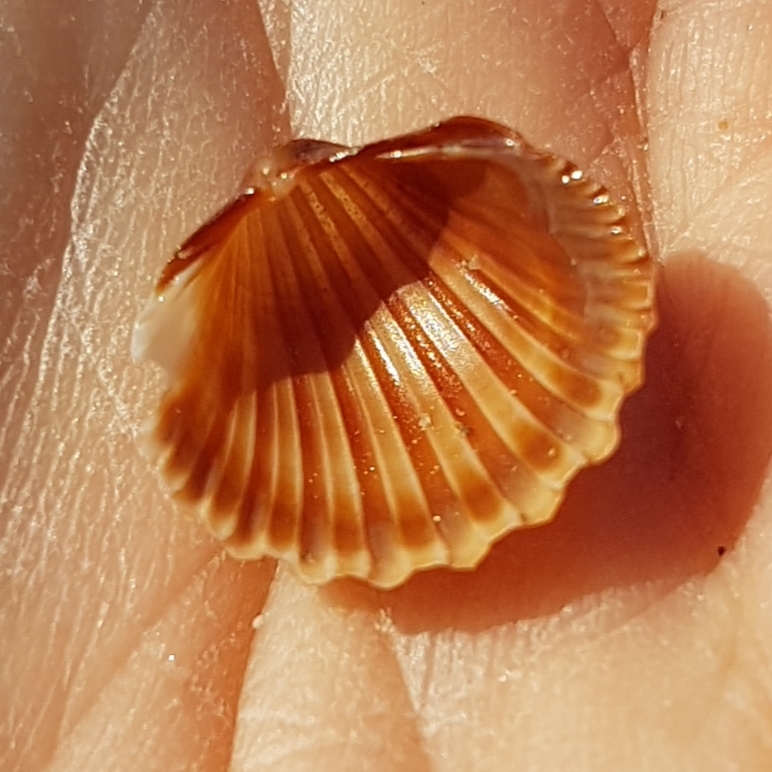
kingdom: Animalia
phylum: Mollusca
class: Bivalvia
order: Cardiida
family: Cardiidae
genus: Acanthocardia
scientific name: Acanthocardia paucicostata
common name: Poorly ribbed cockle
